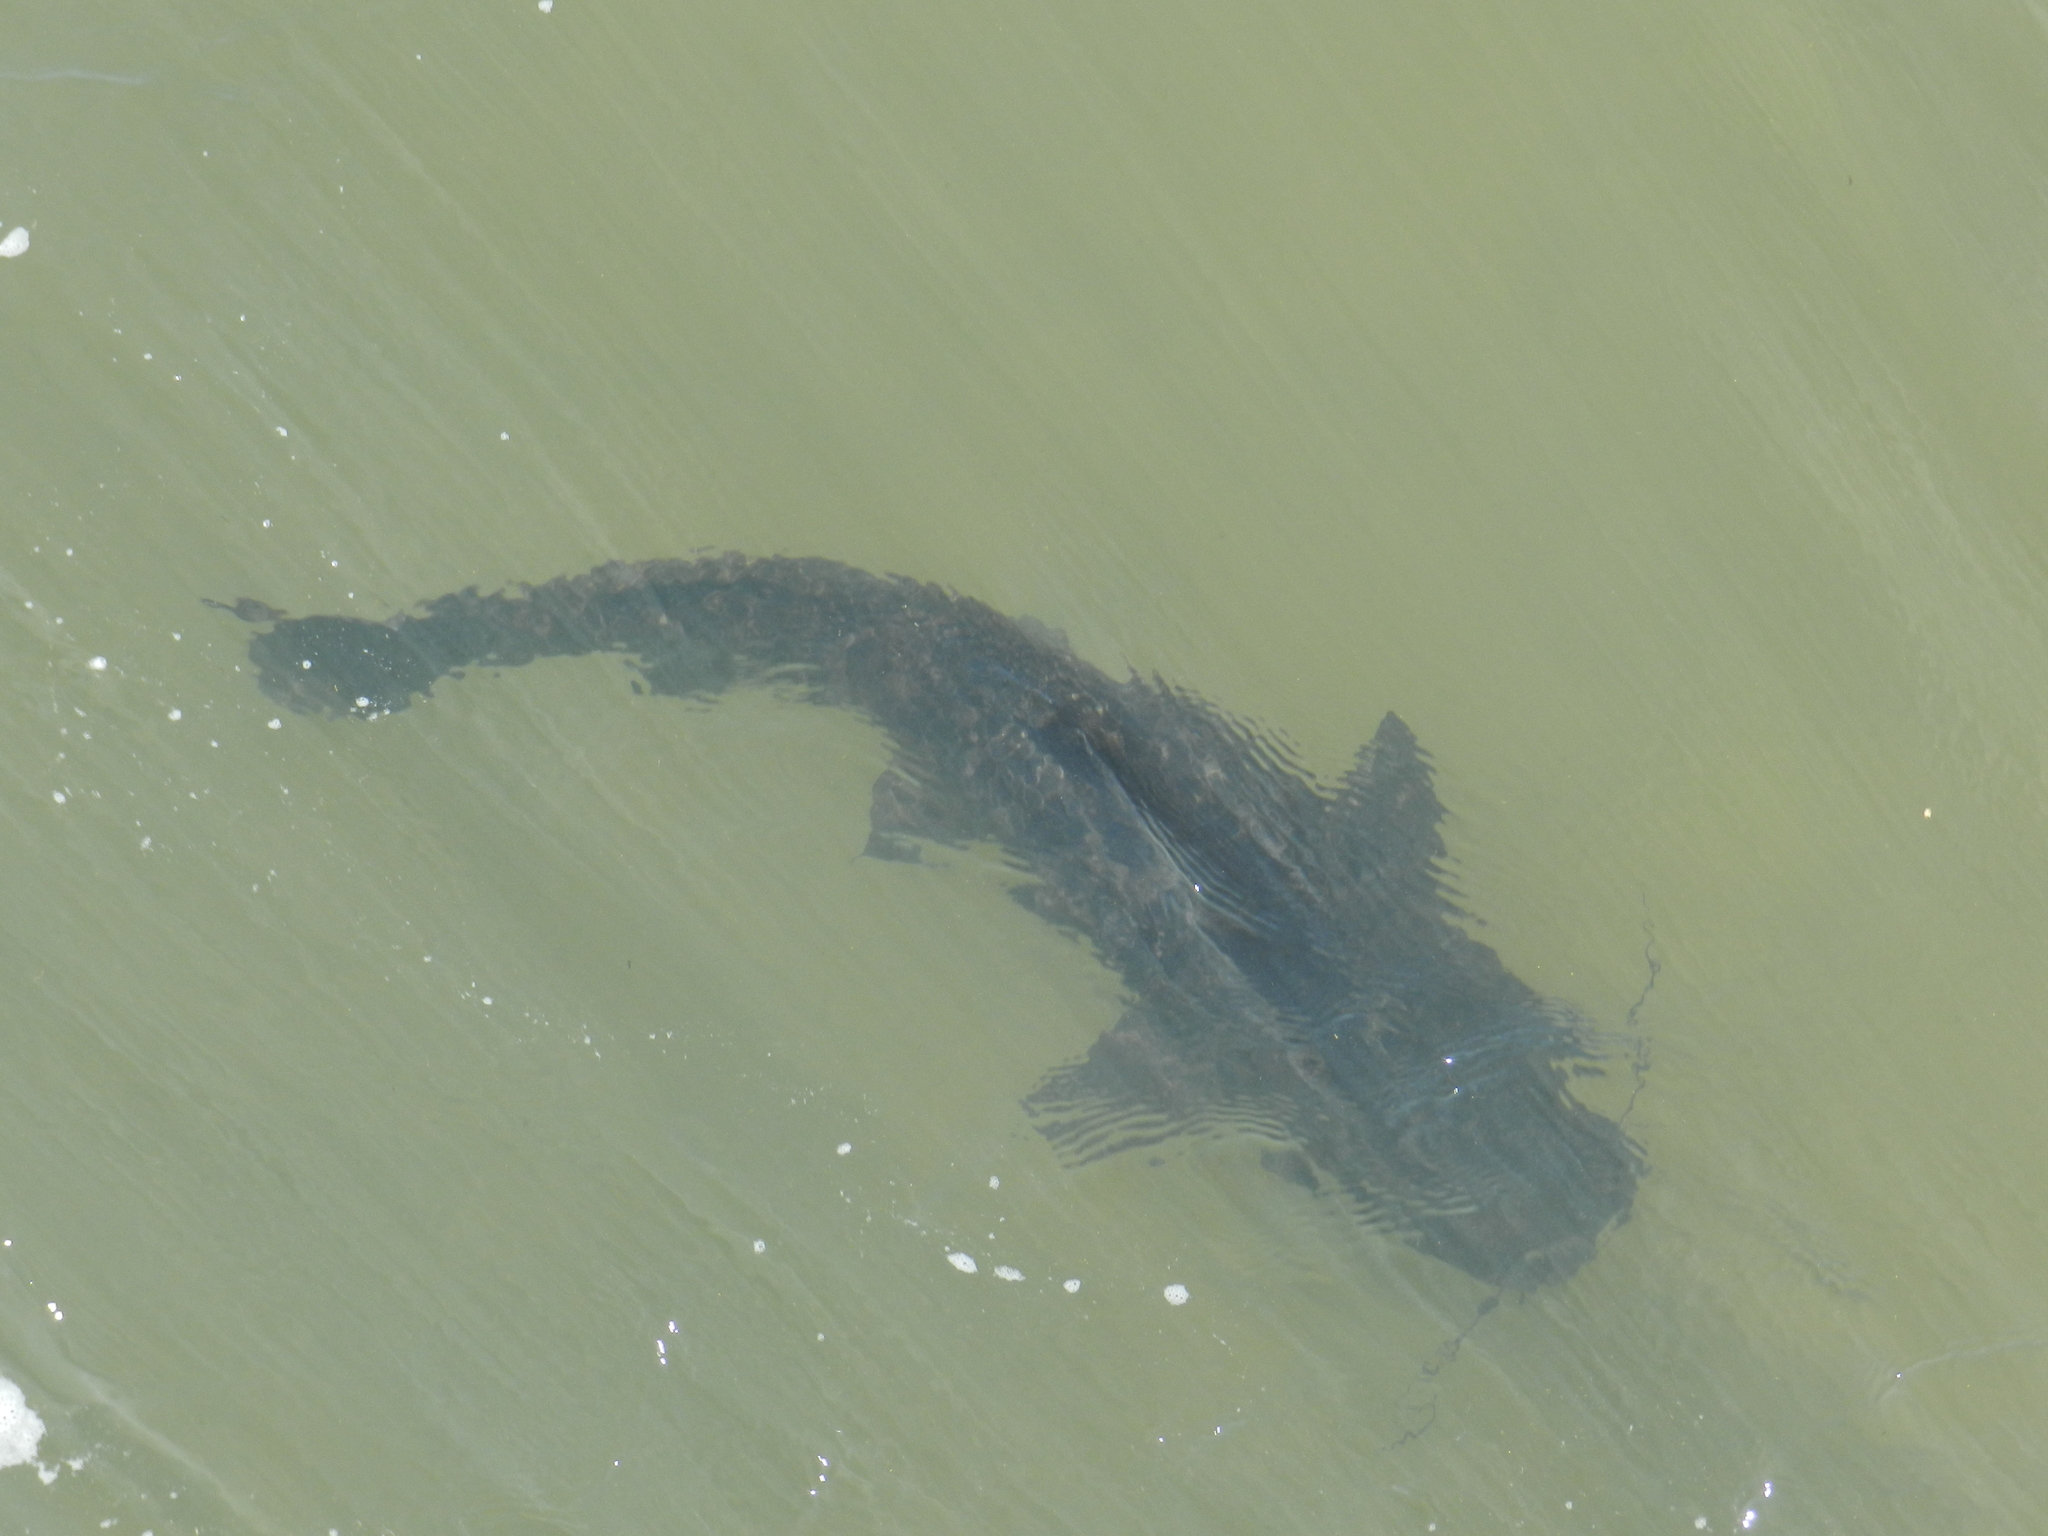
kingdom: Animalia
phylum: Chordata
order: Siluriformes
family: Pimelodidae
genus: Steindachneridion
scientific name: Steindachneridion melanodermatum
